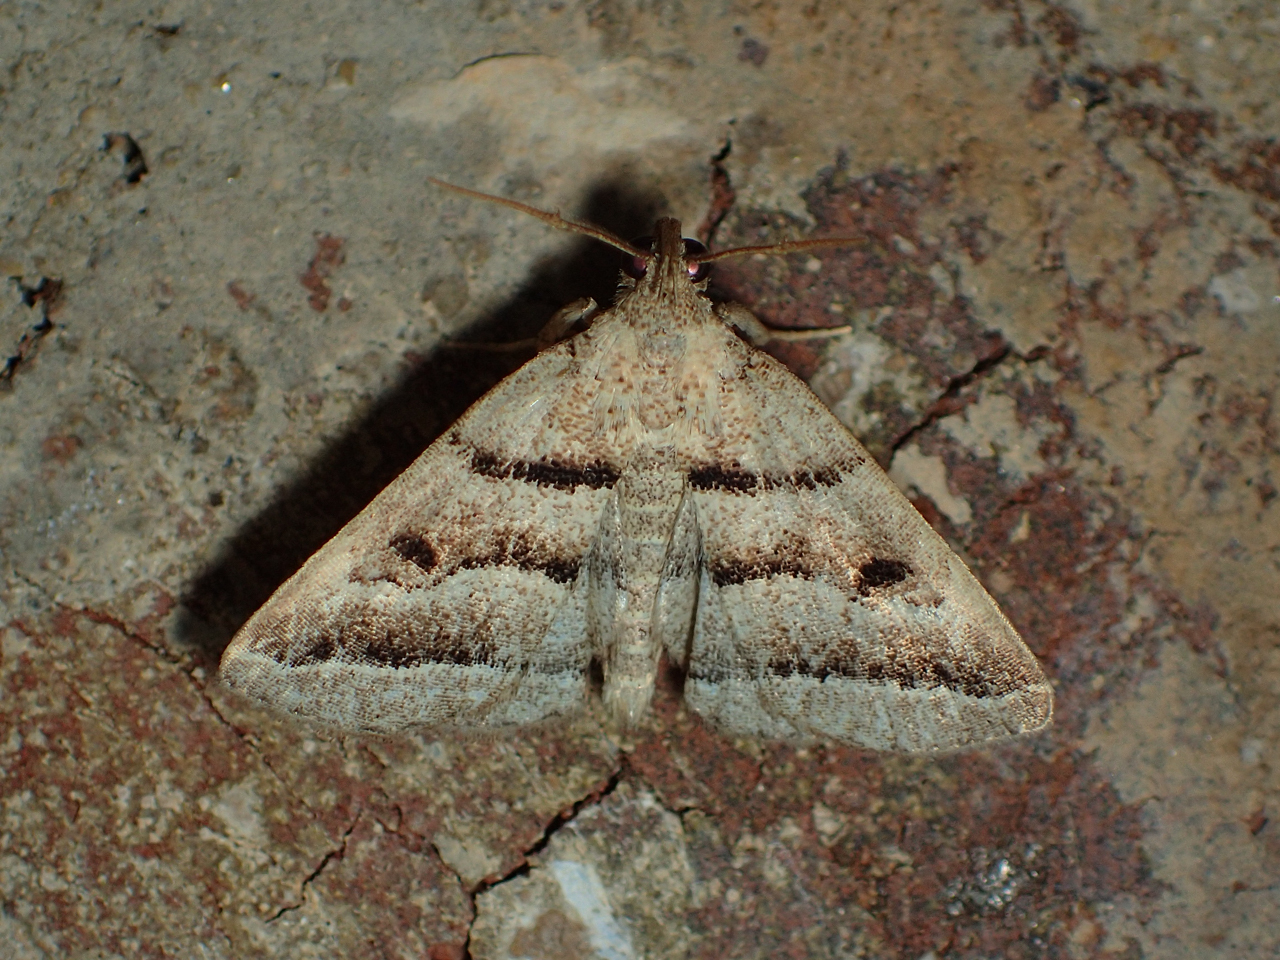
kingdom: Animalia
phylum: Arthropoda
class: Insecta
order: Lepidoptera
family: Erebidae
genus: Zanclognatha
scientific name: Zanclognatha atrilineella
